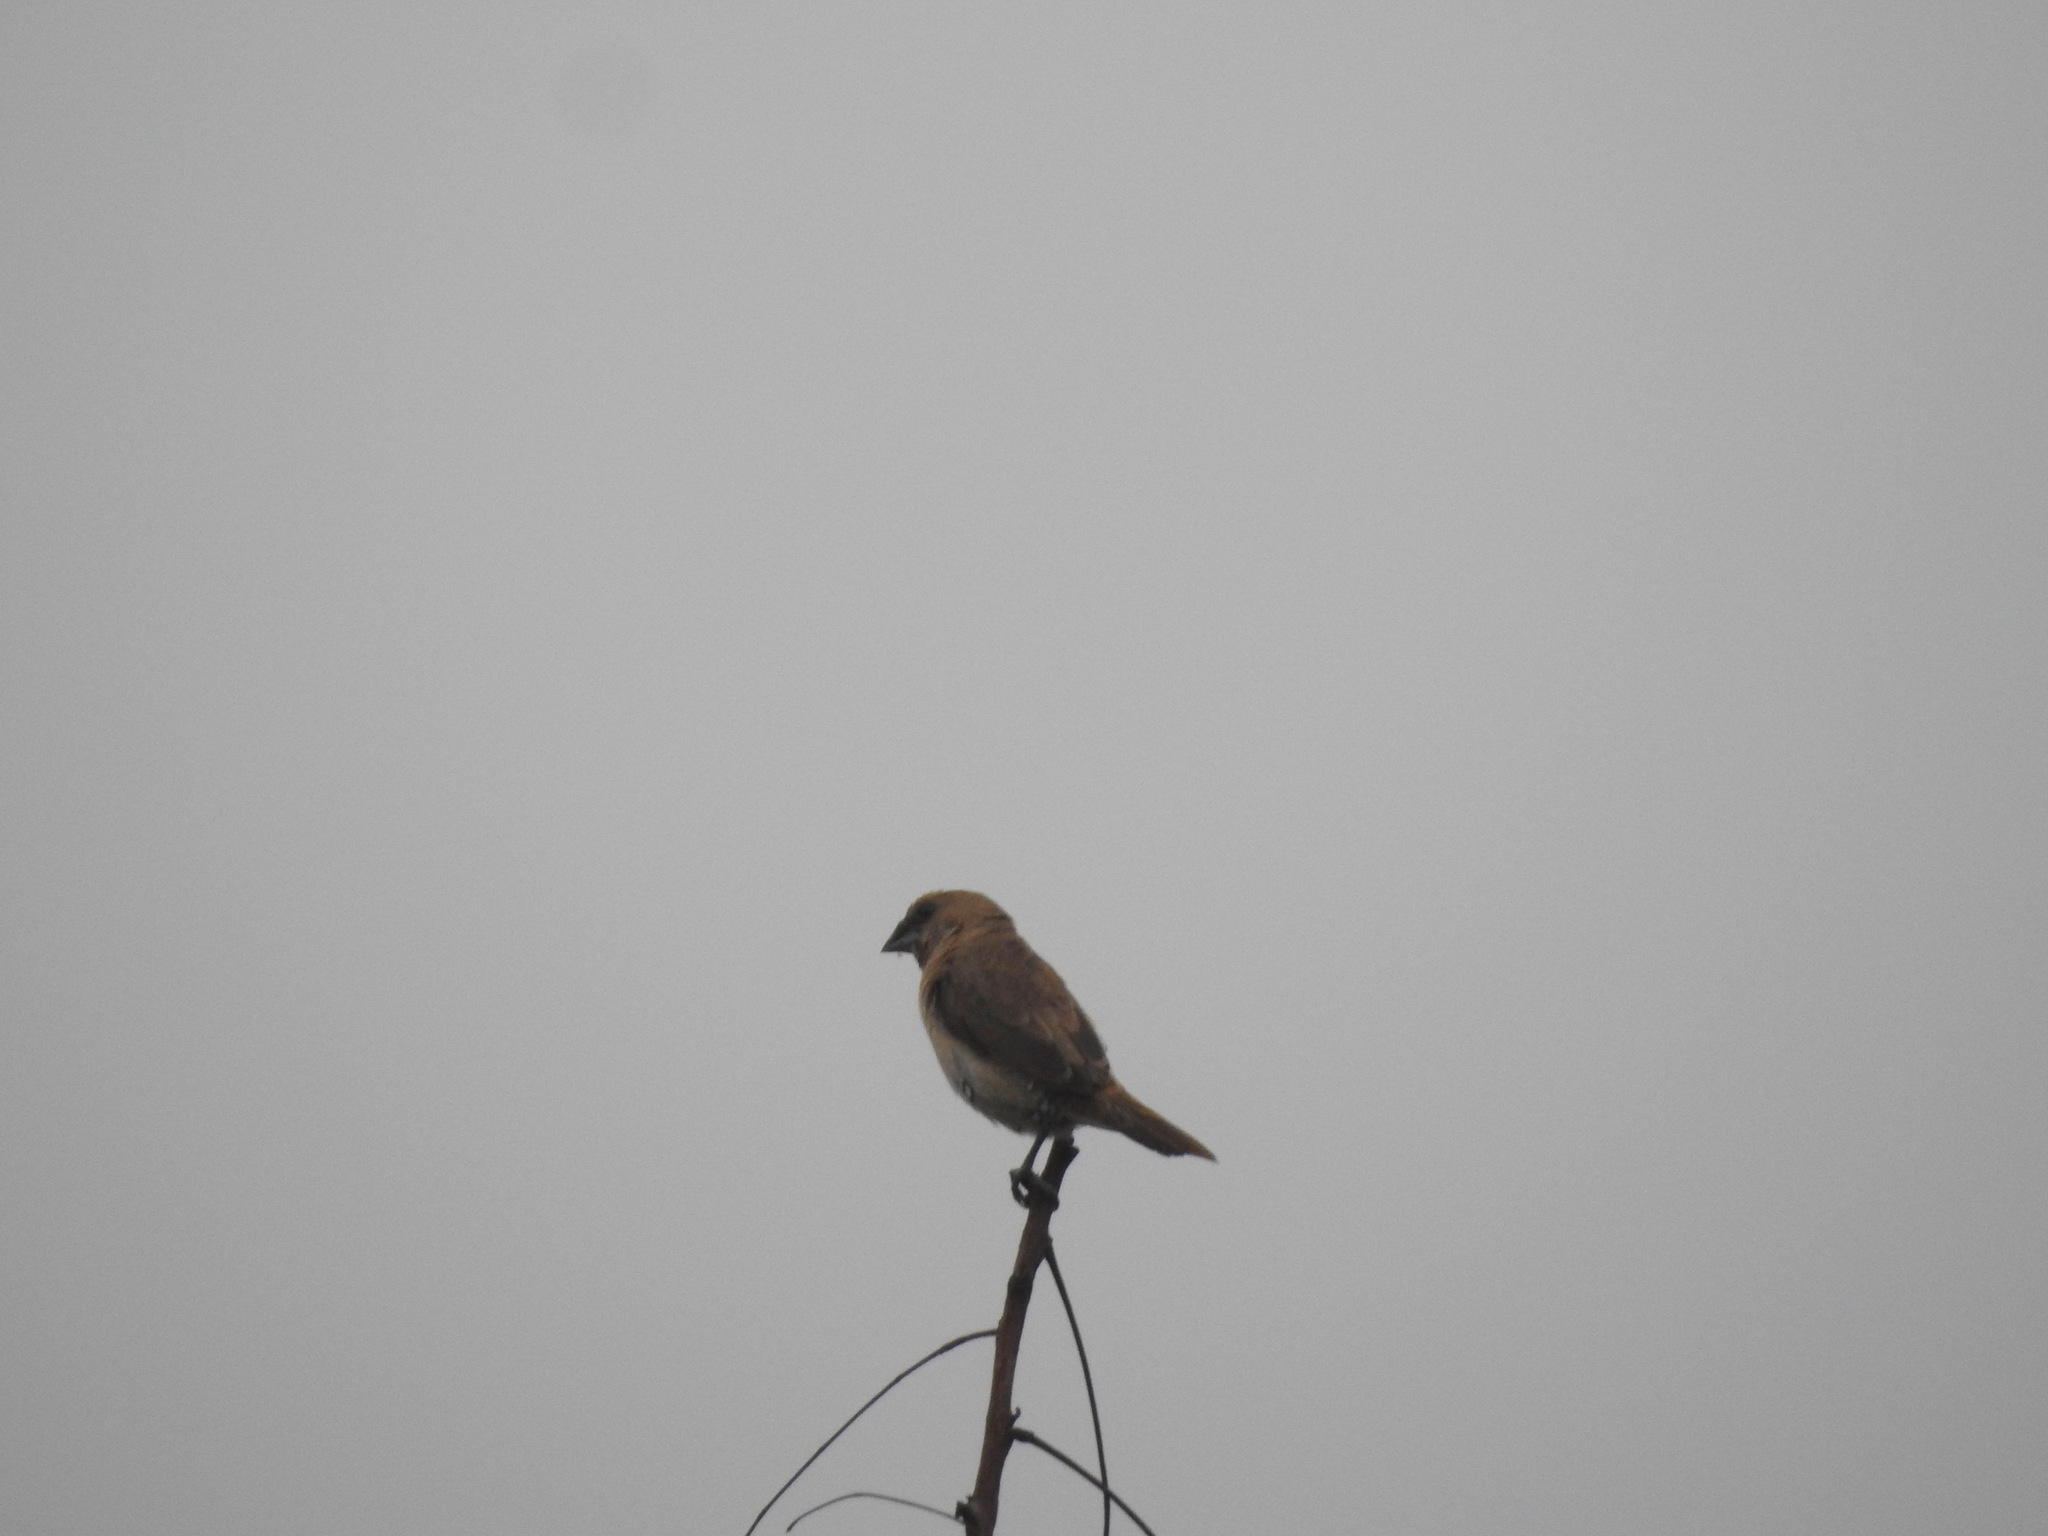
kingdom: Animalia
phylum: Chordata
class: Aves
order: Passeriformes
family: Estrildidae
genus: Lonchura
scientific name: Lonchura punctulata
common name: Scaly-breasted munia
